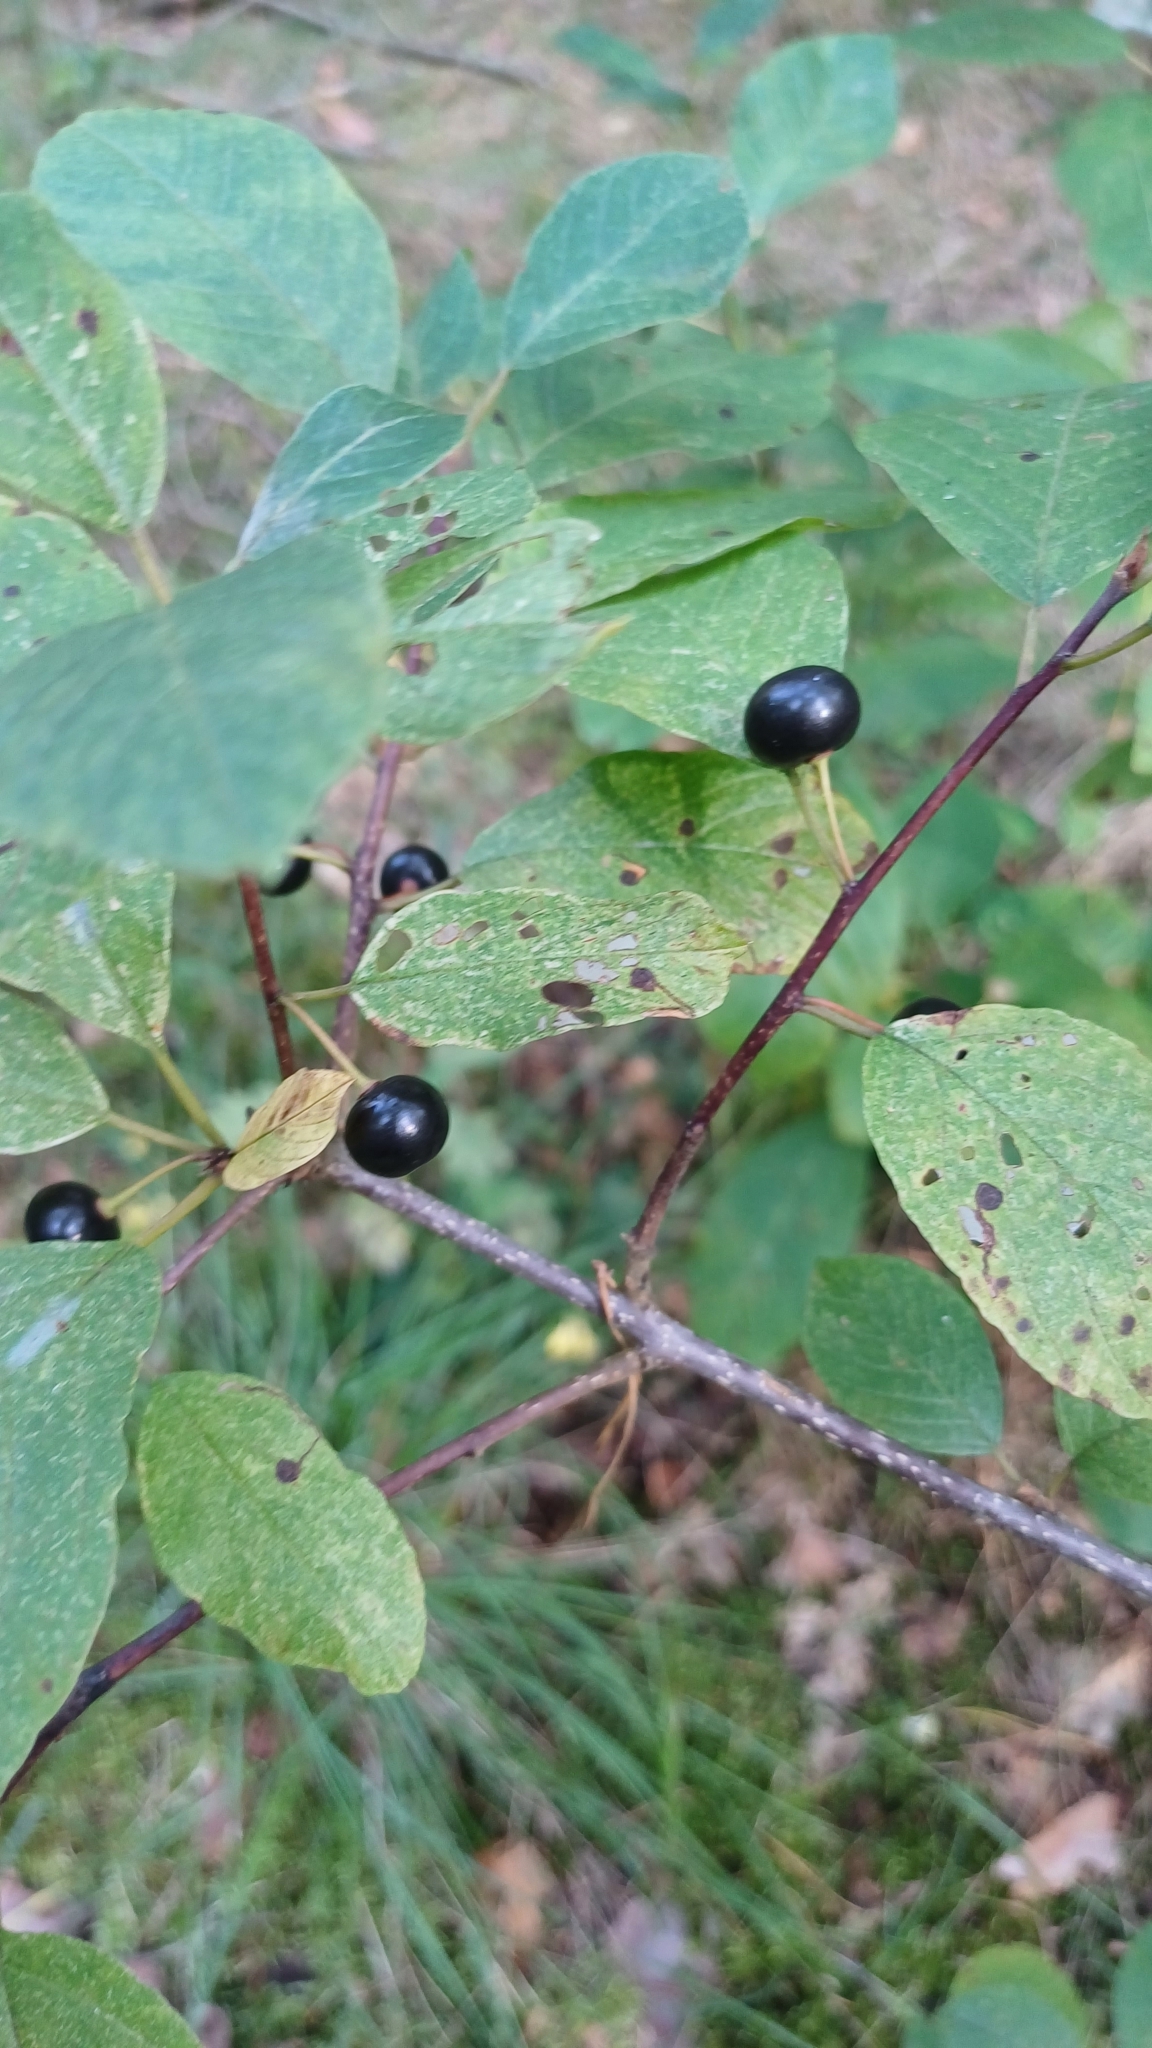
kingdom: Plantae
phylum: Tracheophyta
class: Magnoliopsida
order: Rosales
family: Rhamnaceae
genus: Frangula
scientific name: Frangula alnus
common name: Alder buckthorn
